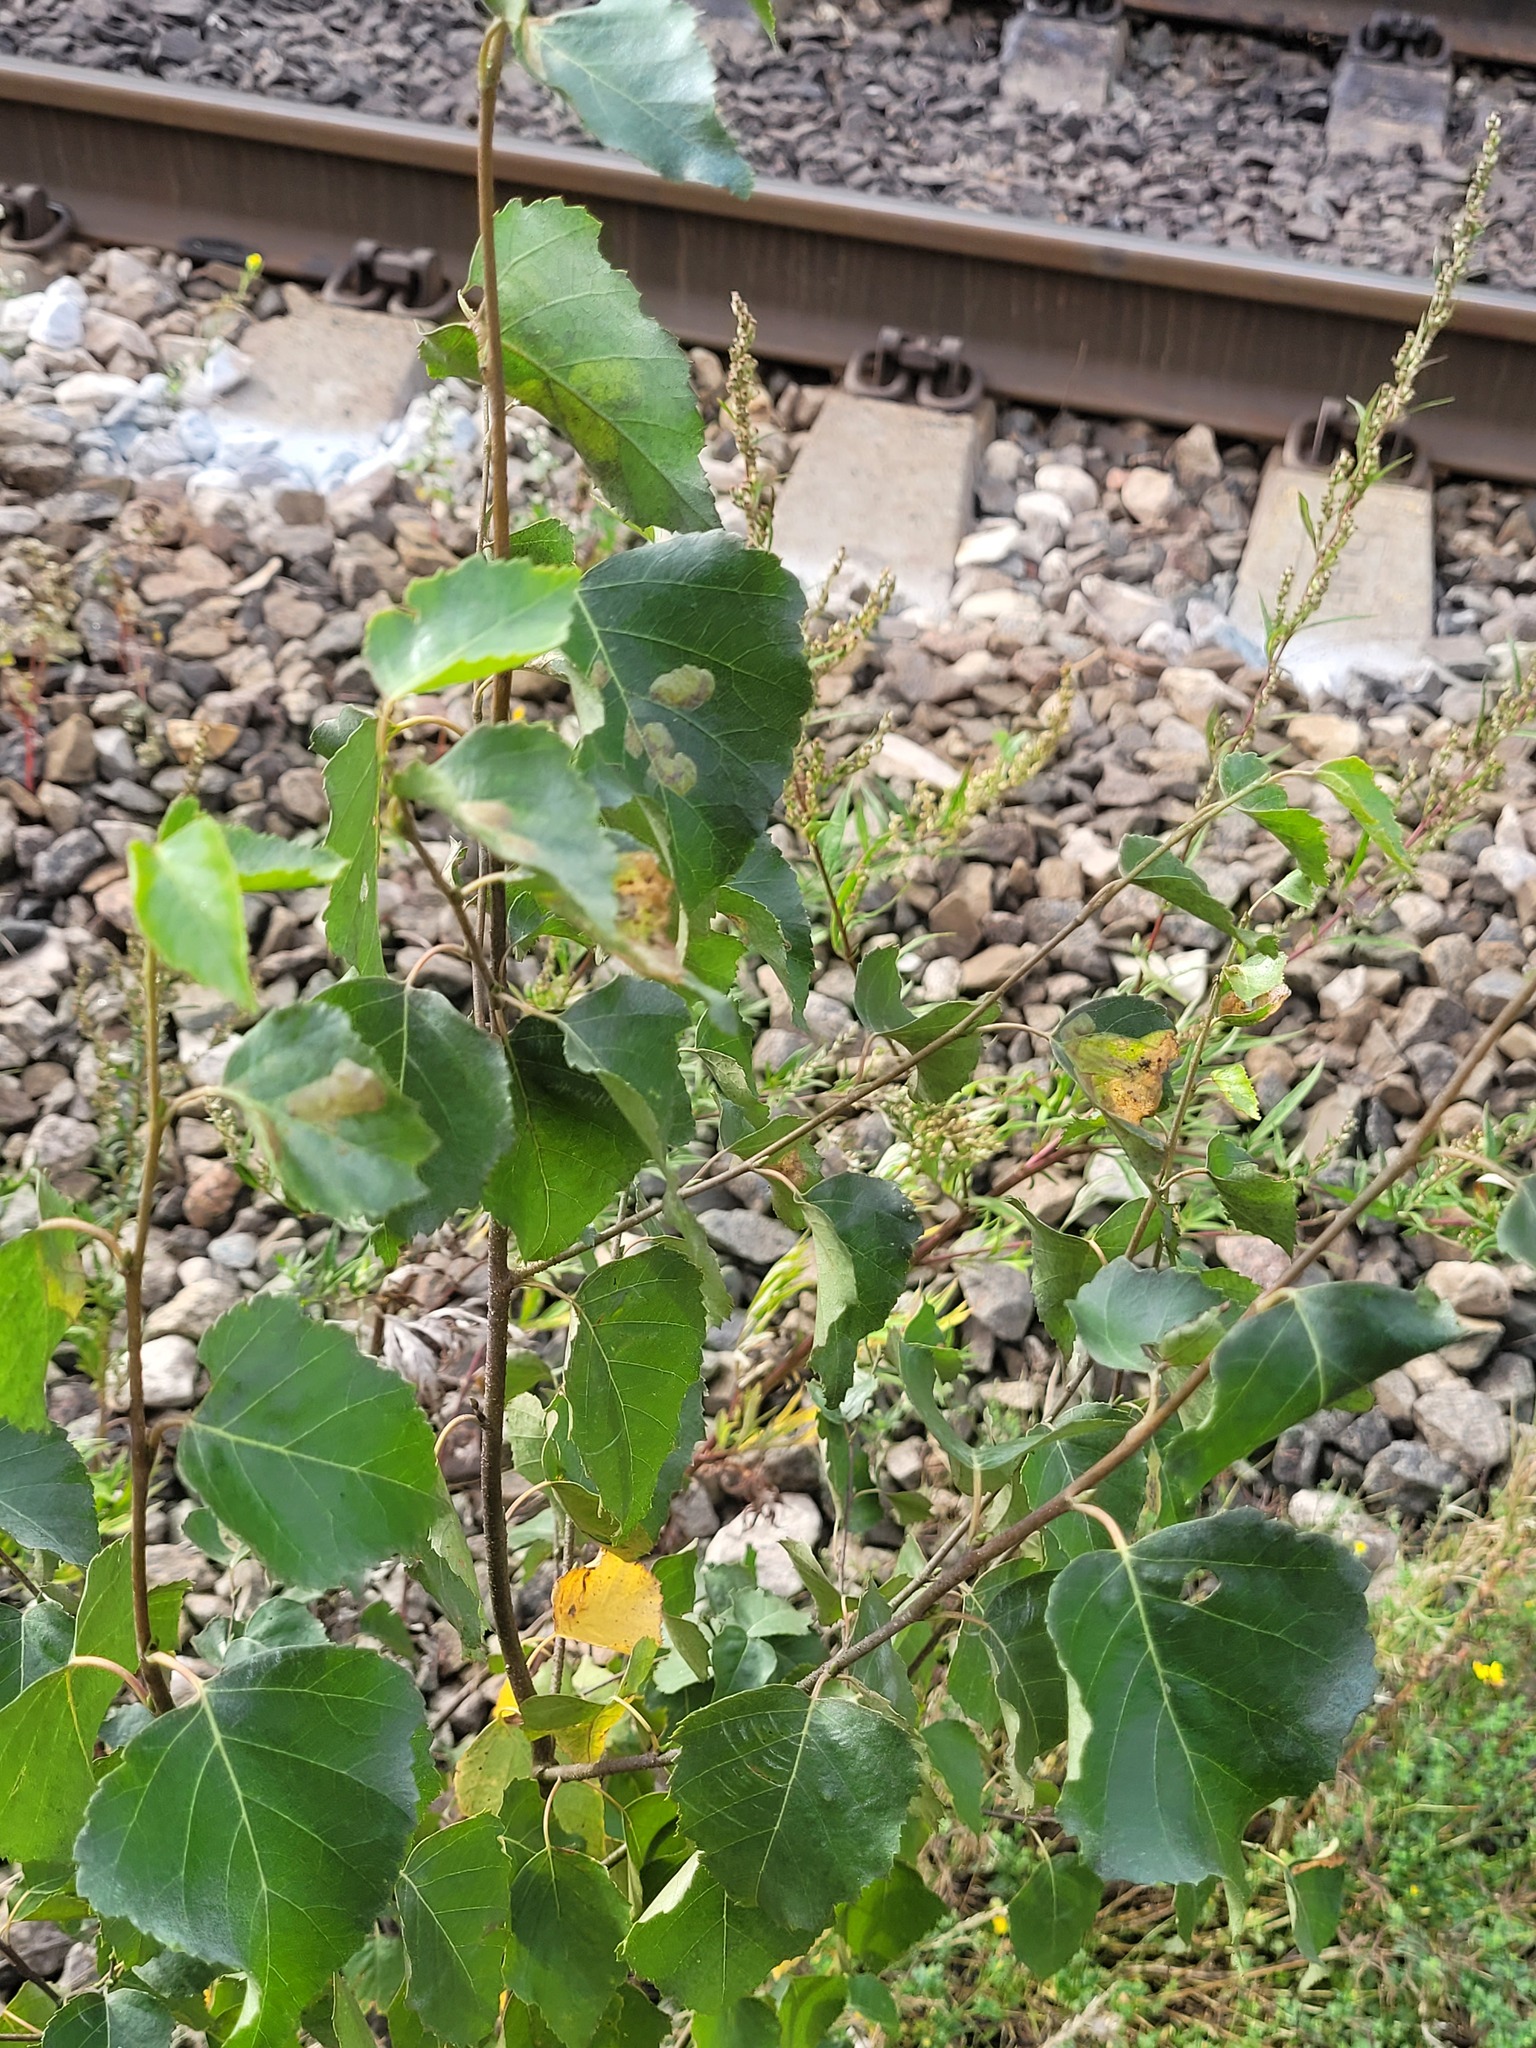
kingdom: Plantae
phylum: Tracheophyta
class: Magnoliopsida
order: Fagales
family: Betulaceae
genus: Betula
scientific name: Betula pendula
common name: Silver birch
